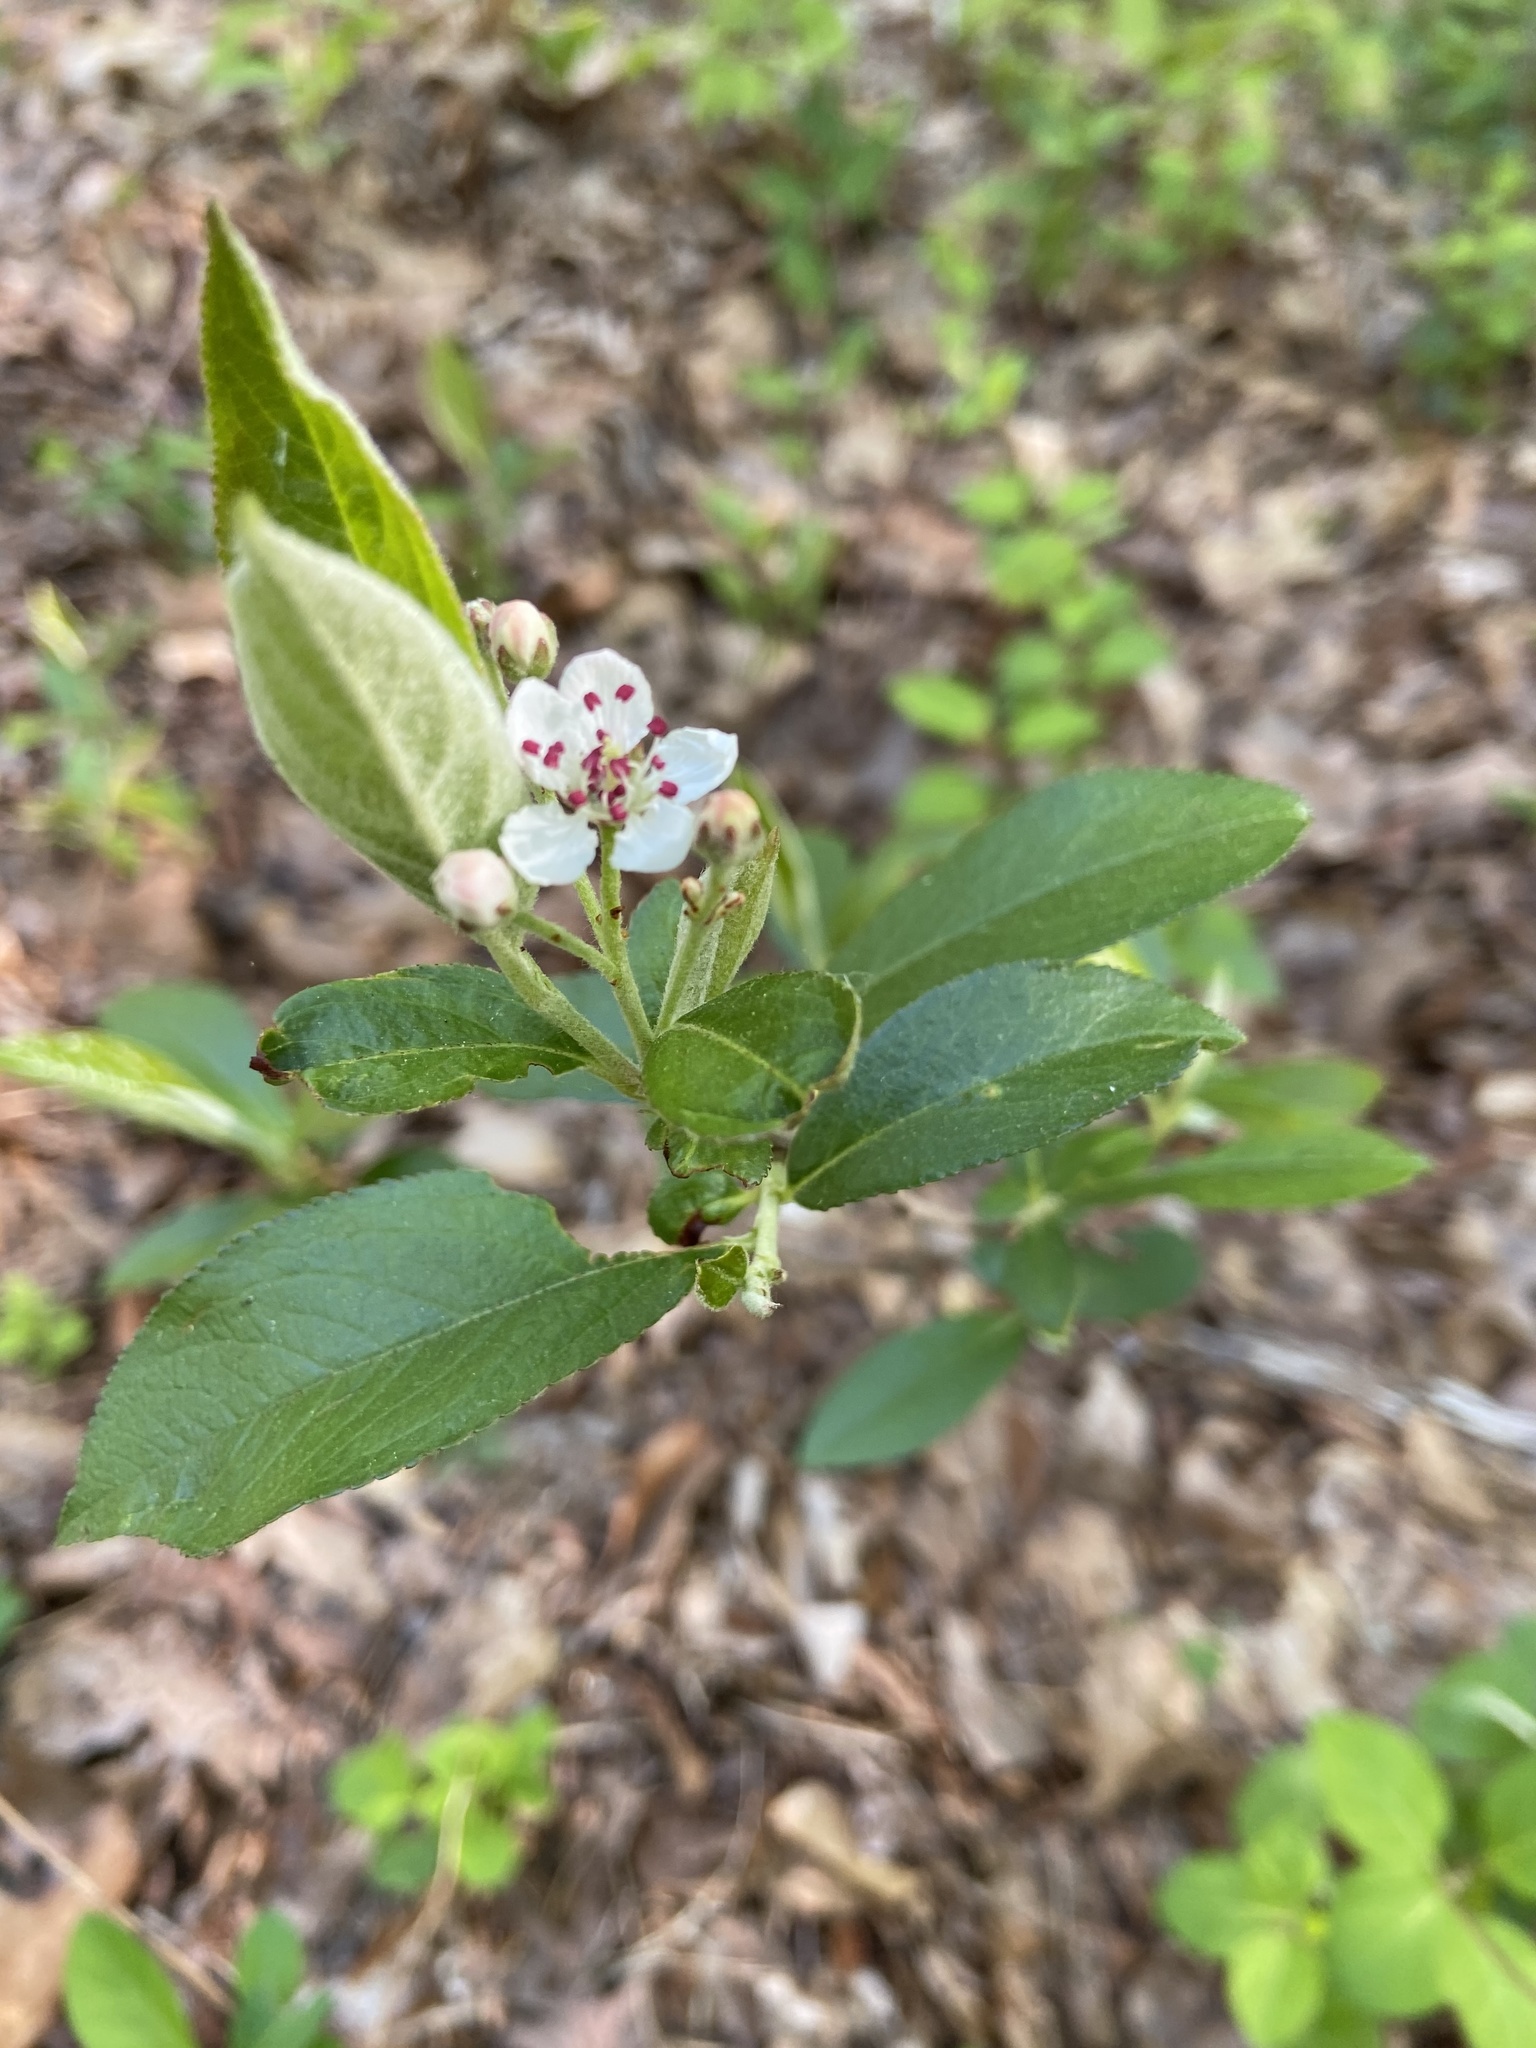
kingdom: Plantae
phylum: Tracheophyta
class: Magnoliopsida
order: Rosales
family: Rosaceae
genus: Aronia
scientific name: Aronia arbutifolia
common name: Red chokeberry
